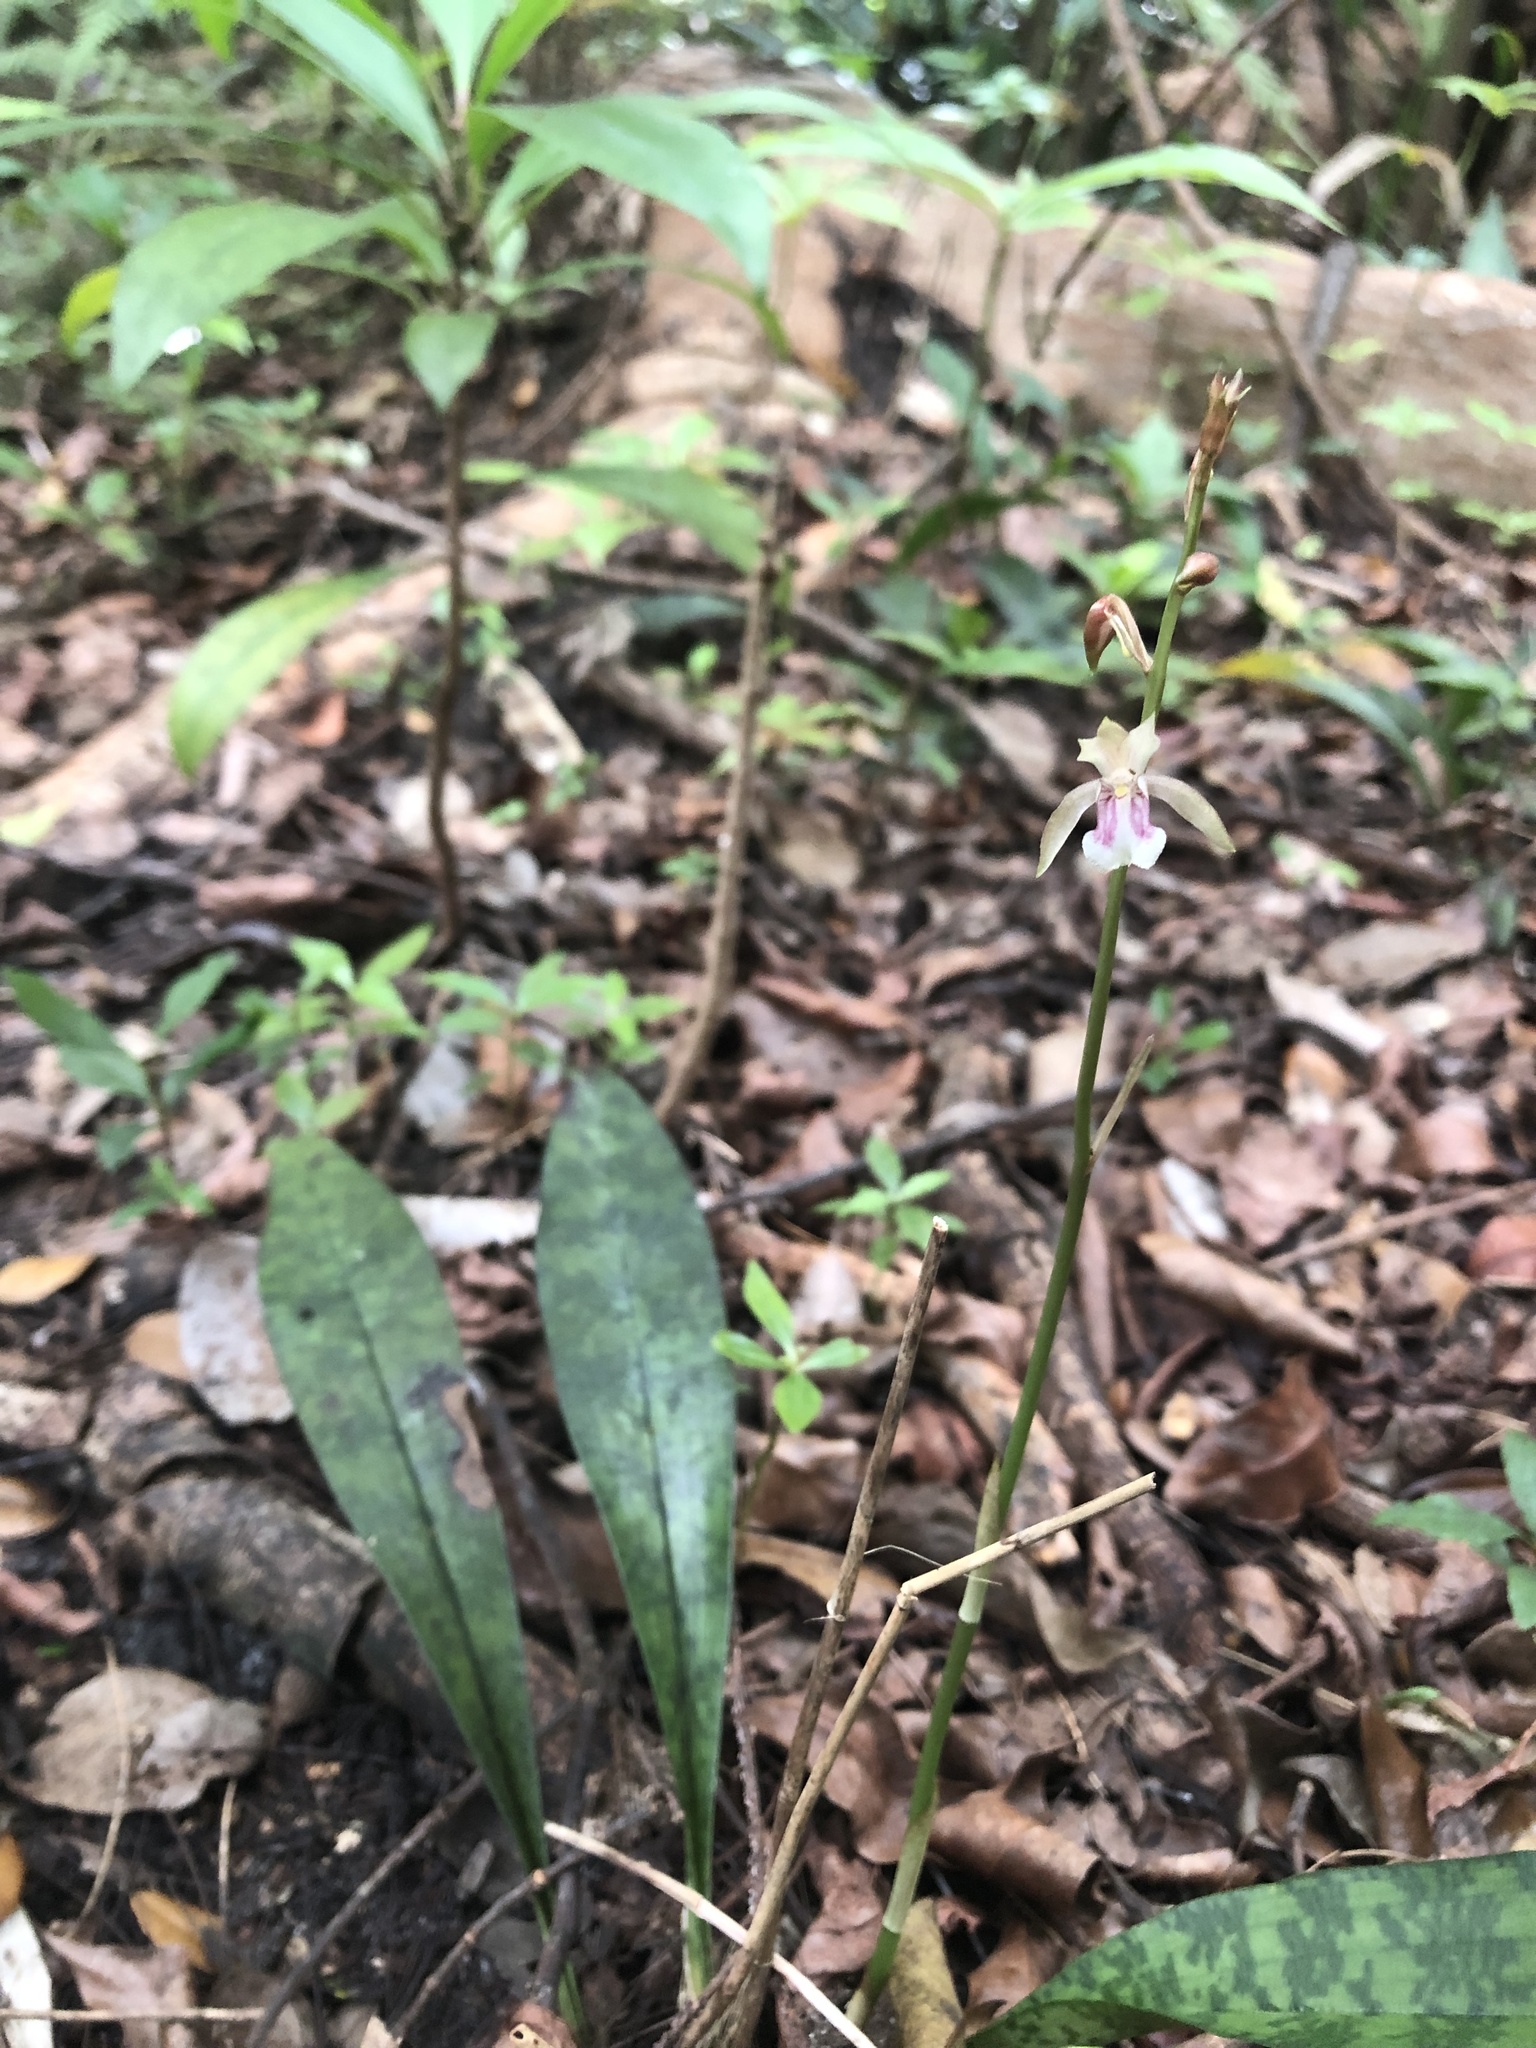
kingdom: Plantae
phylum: Tracheophyta
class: Liliopsida
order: Asparagales
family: Orchidaceae
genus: Eulophia
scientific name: Eulophia maculata
